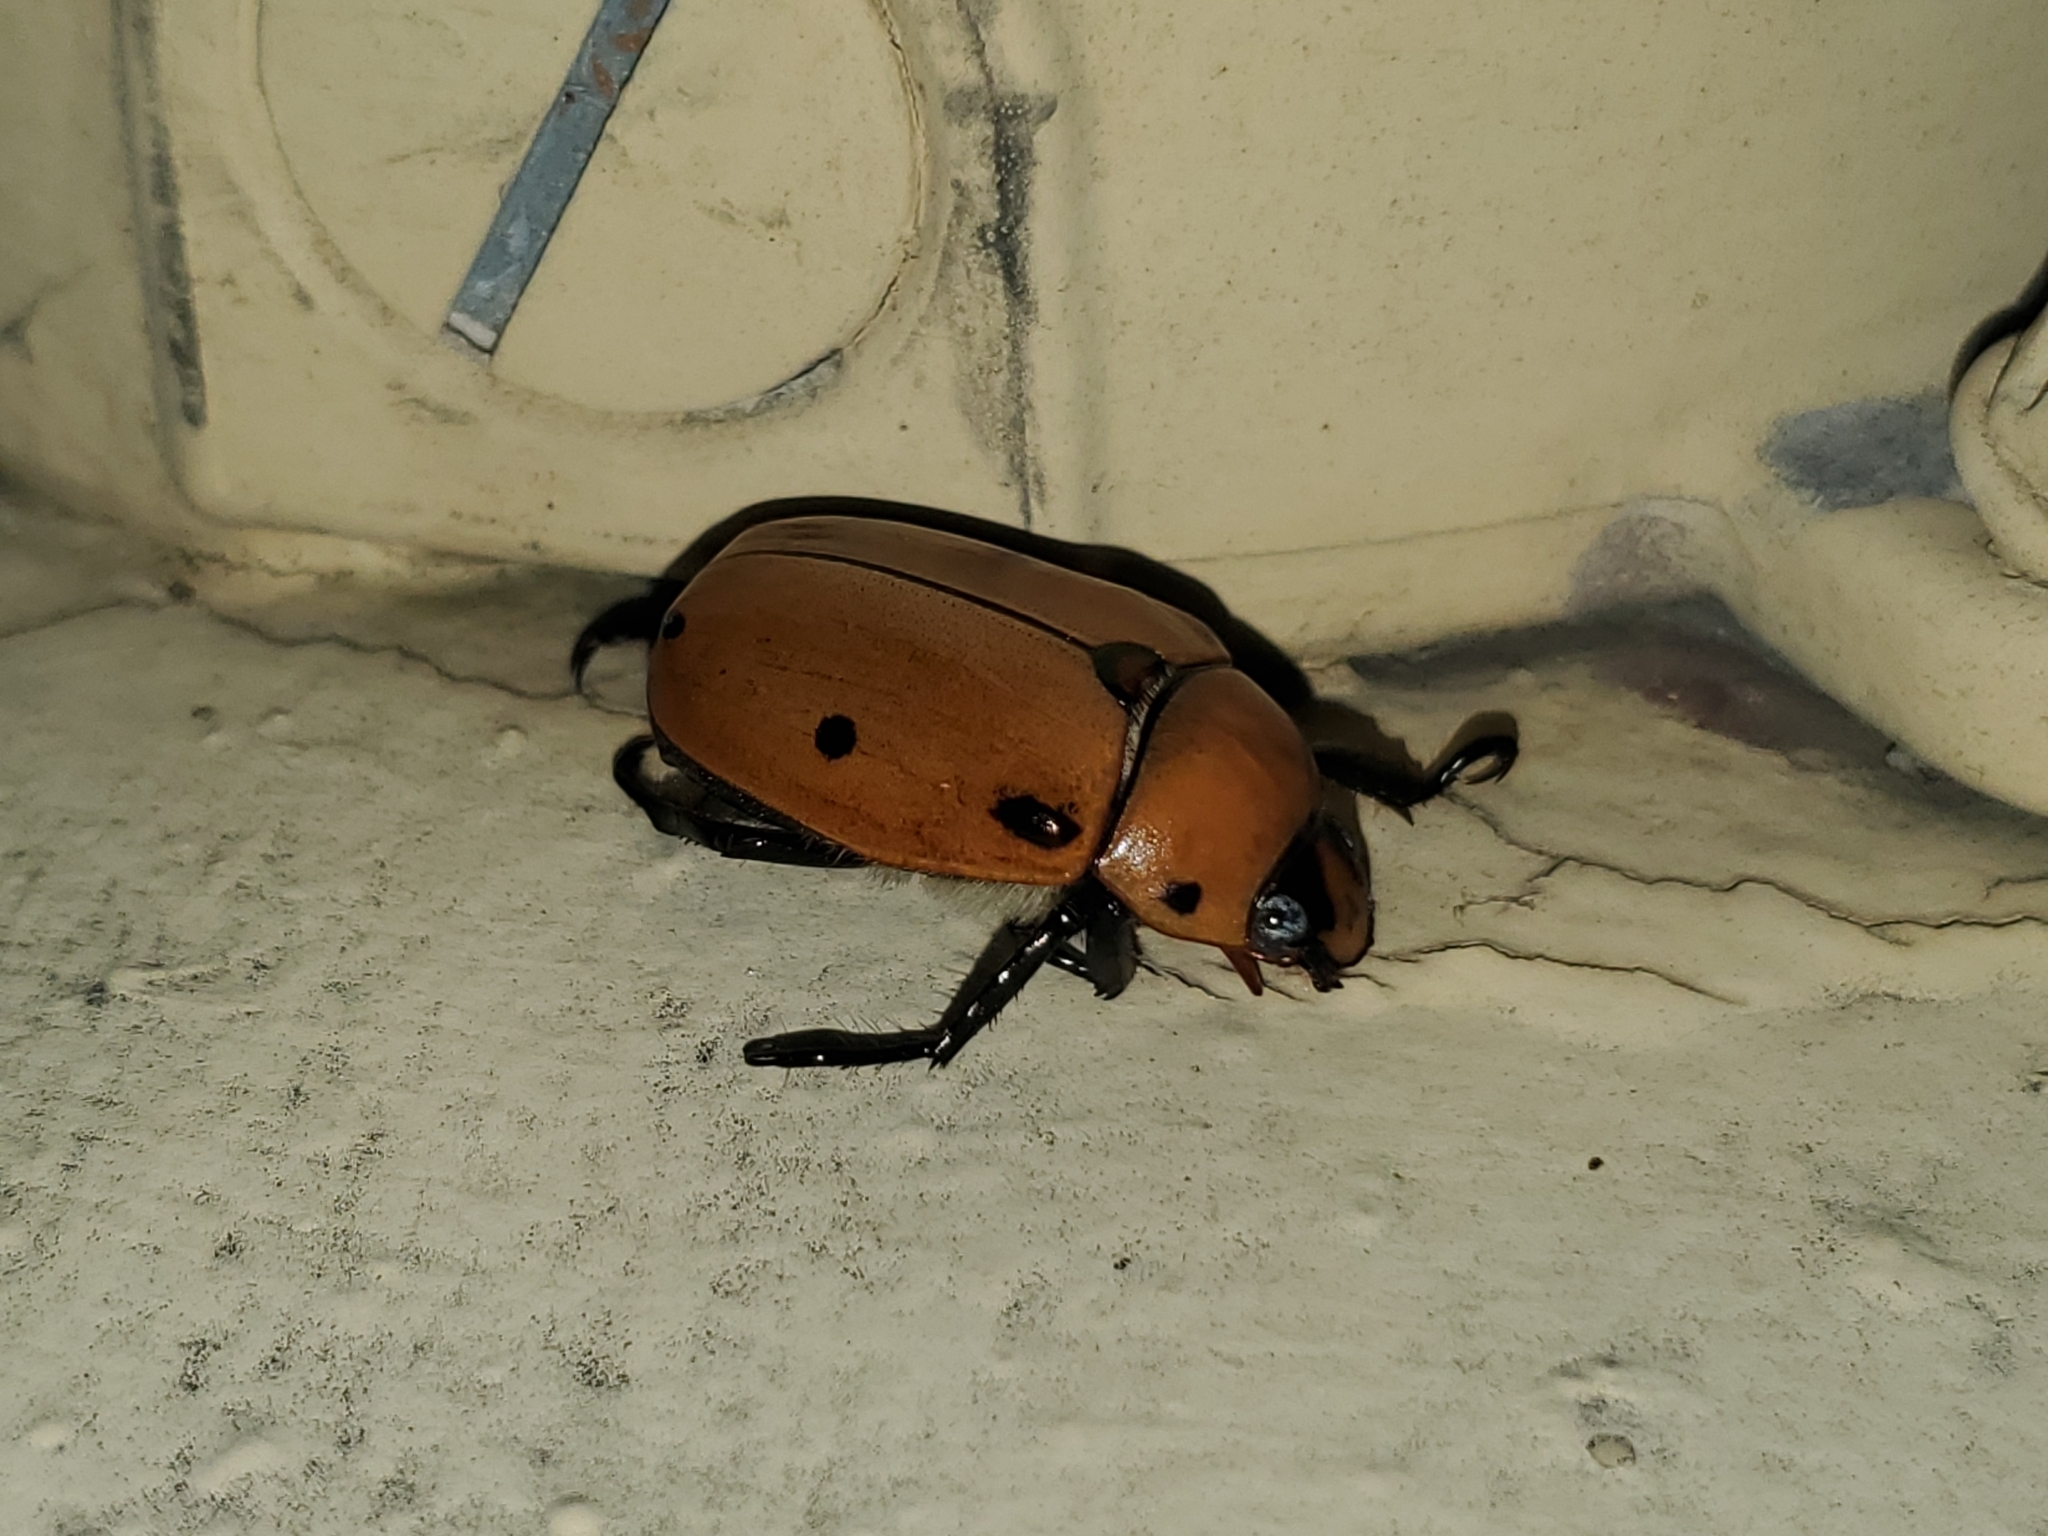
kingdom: Animalia
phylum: Arthropoda
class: Insecta
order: Coleoptera
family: Scarabaeidae
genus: Pelidnota
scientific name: Pelidnota punctata
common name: Grapevine beetle
